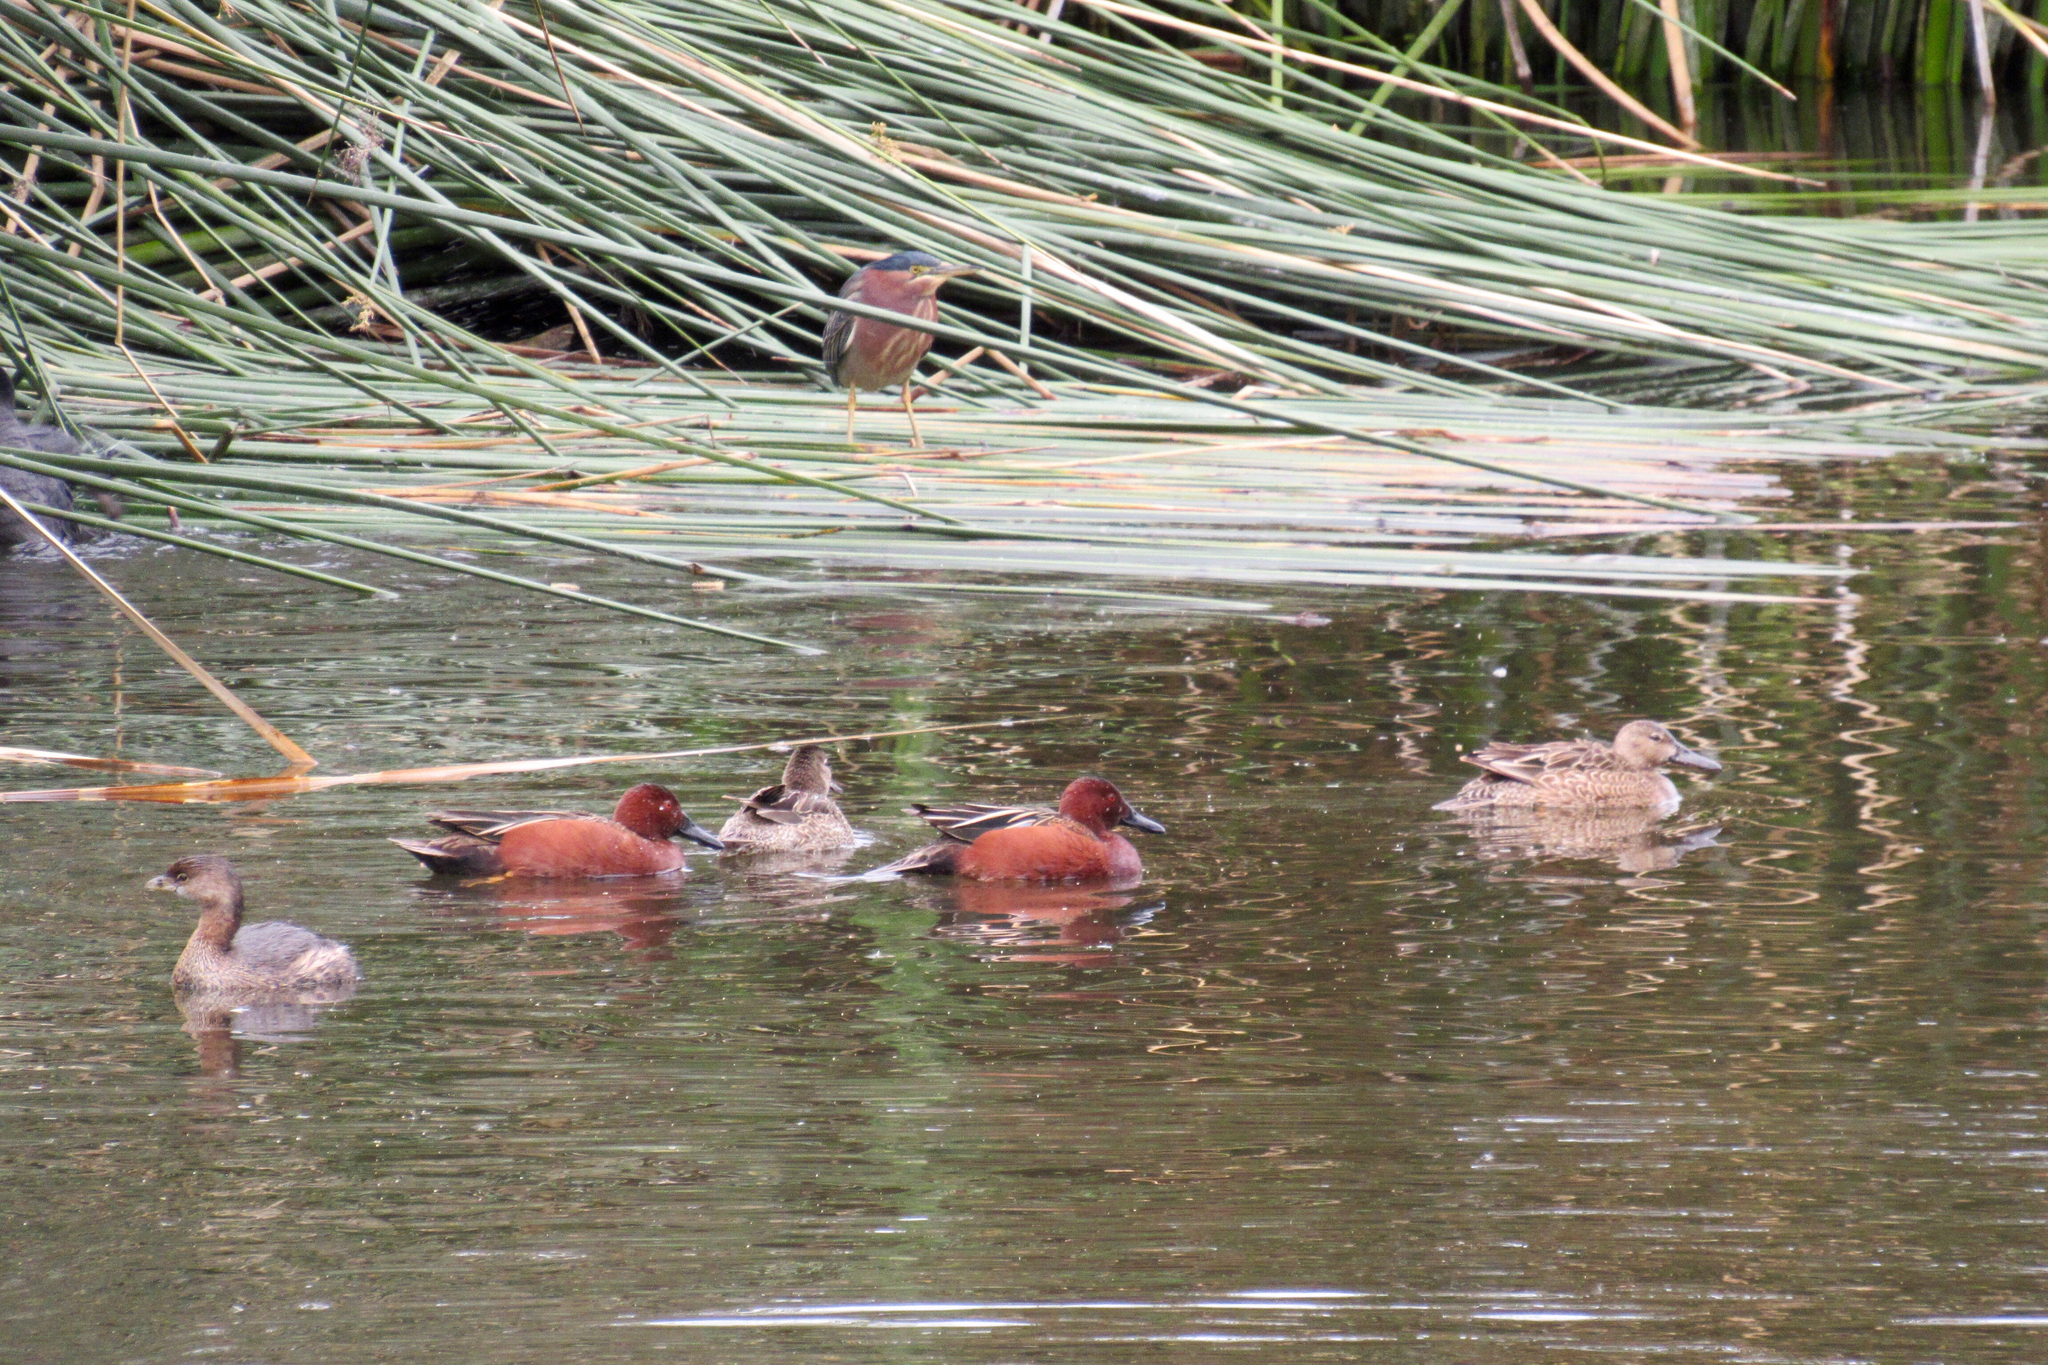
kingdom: Animalia
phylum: Chordata
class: Aves
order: Anseriformes
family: Anatidae
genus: Spatula
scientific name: Spatula cyanoptera
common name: Cinnamon teal
